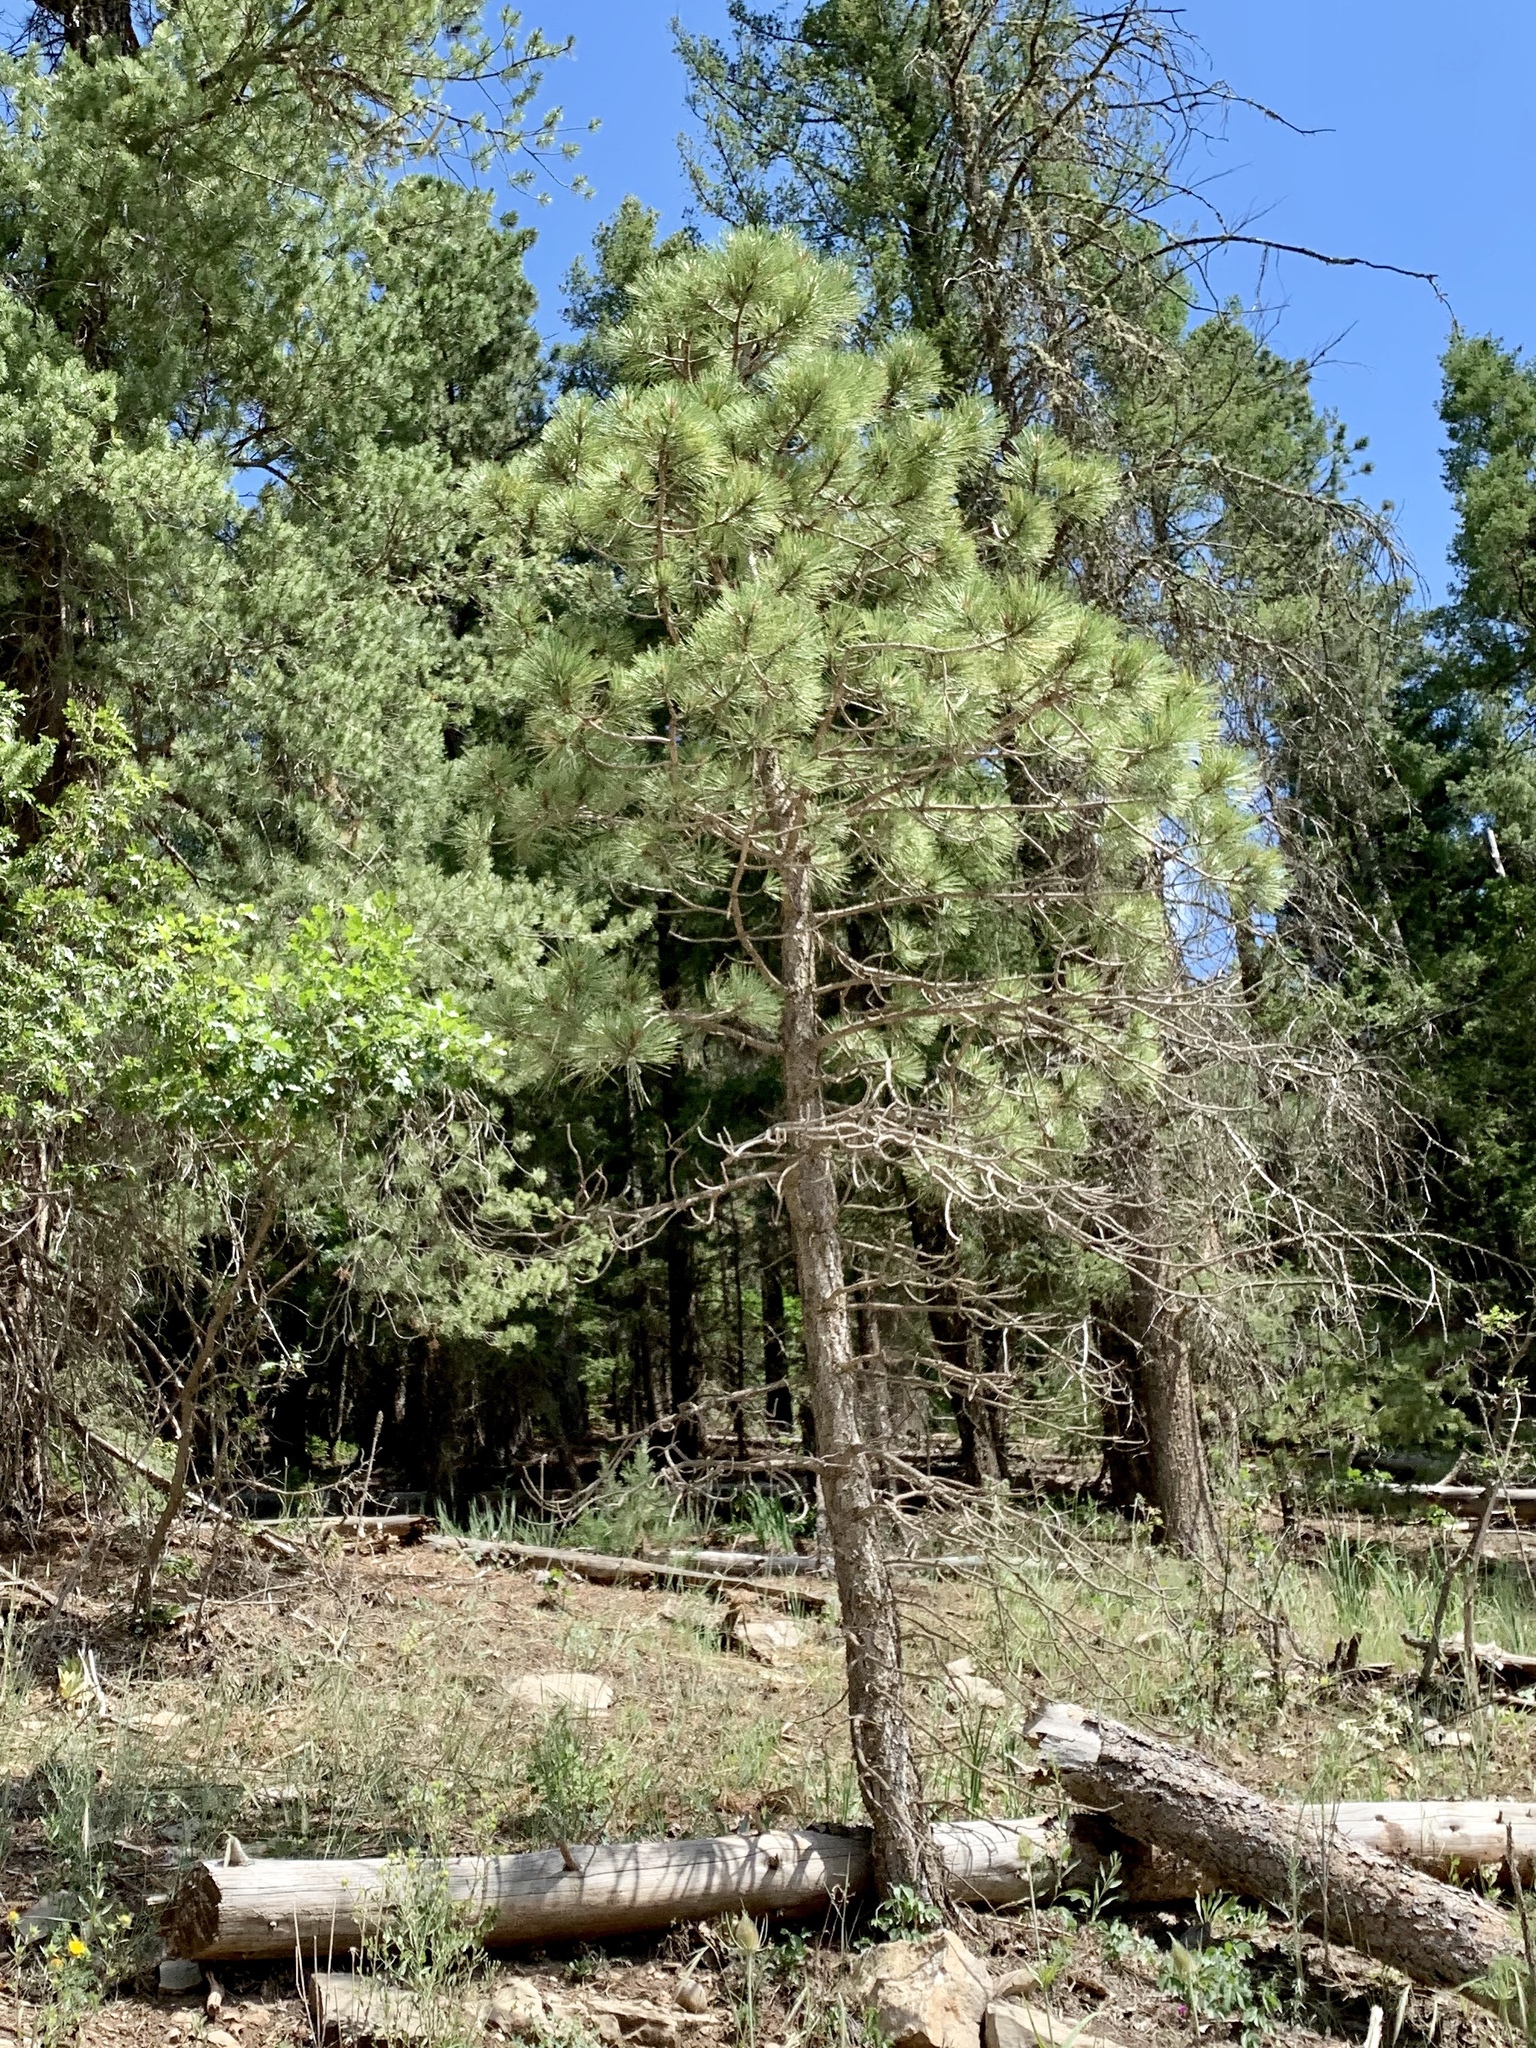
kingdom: Plantae
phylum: Tracheophyta
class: Pinopsida
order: Pinales
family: Pinaceae
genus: Pinus
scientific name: Pinus ponderosa
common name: Western yellow-pine
